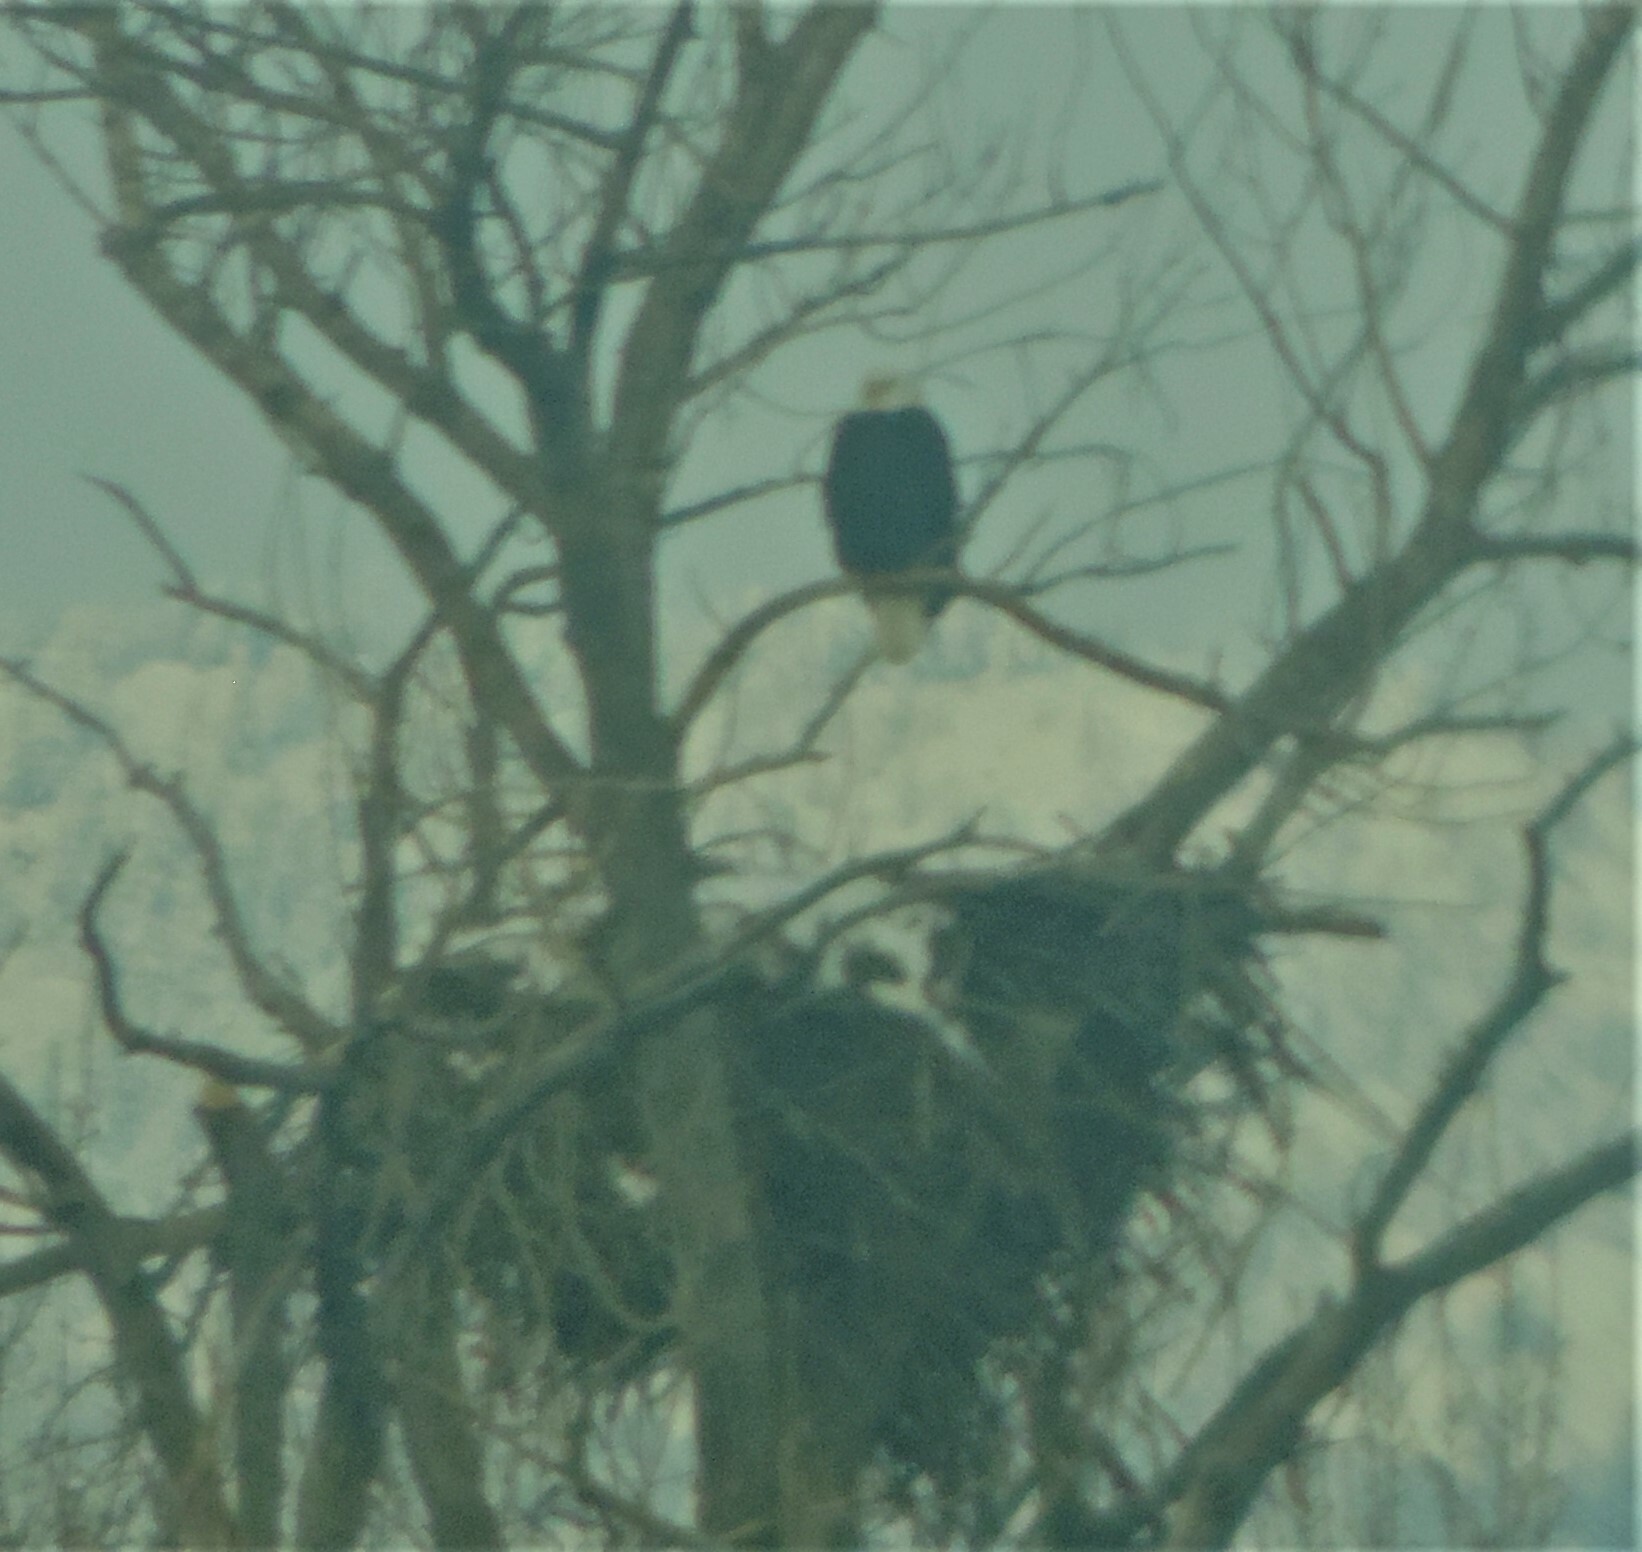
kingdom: Animalia
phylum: Chordata
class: Aves
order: Accipitriformes
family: Accipitridae
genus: Haliaeetus
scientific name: Haliaeetus leucocephalus
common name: Bald eagle
